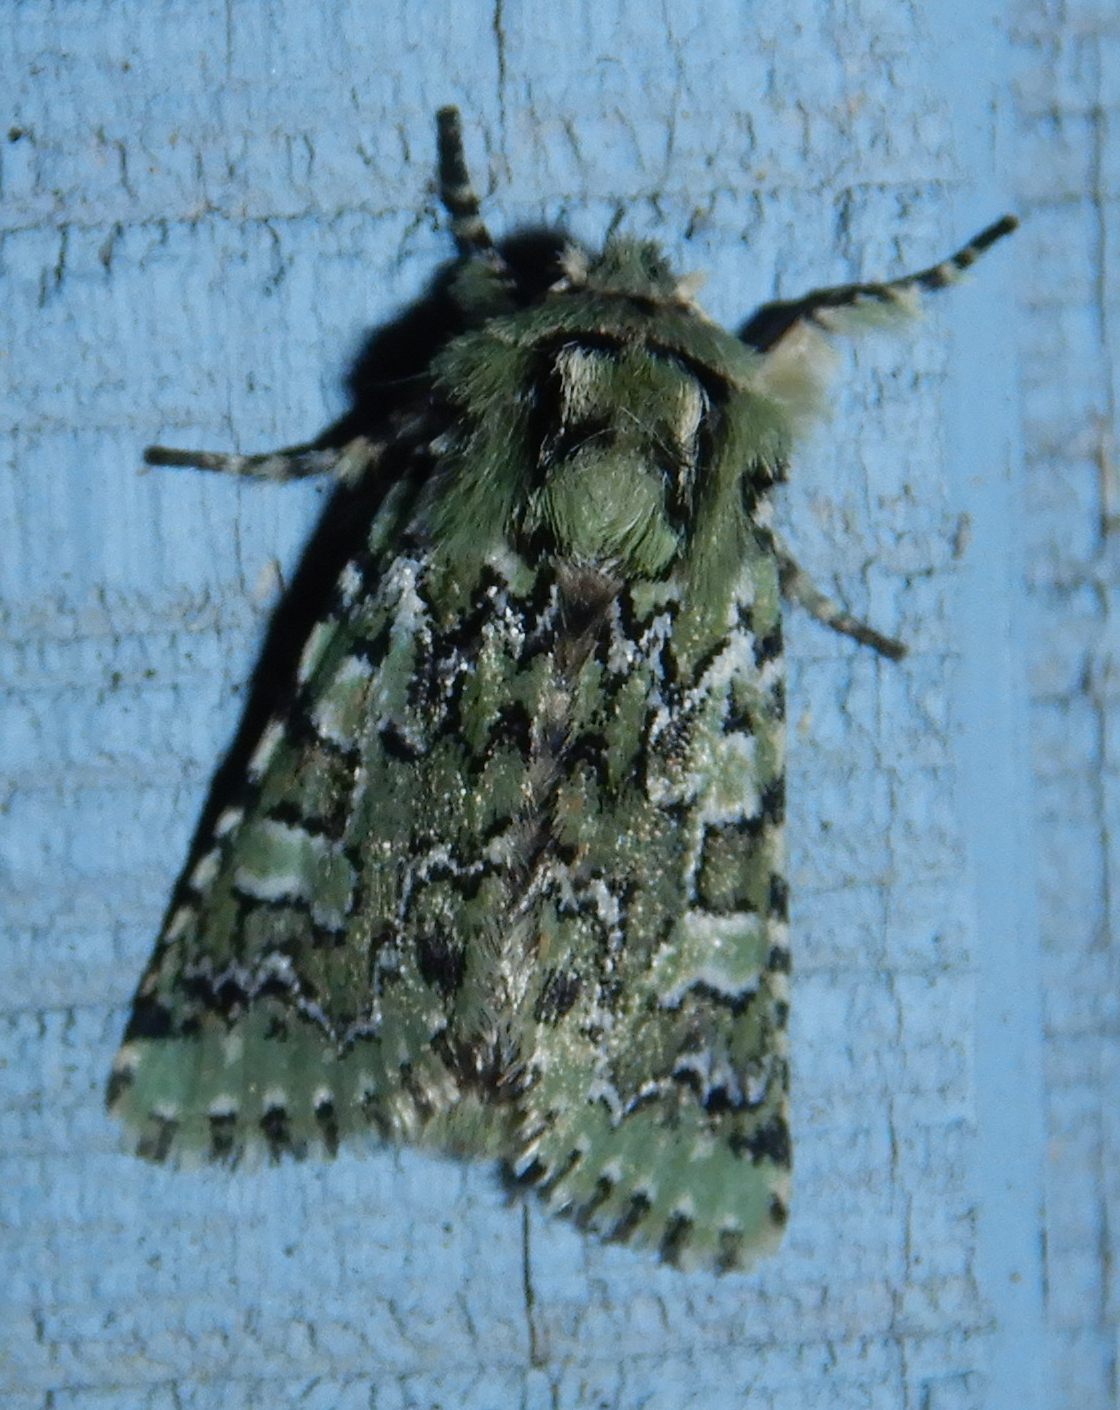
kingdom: Animalia
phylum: Arthropoda
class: Insecta
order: Lepidoptera
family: Noctuidae
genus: Feralia
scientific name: Feralia jocosa
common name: Joker
